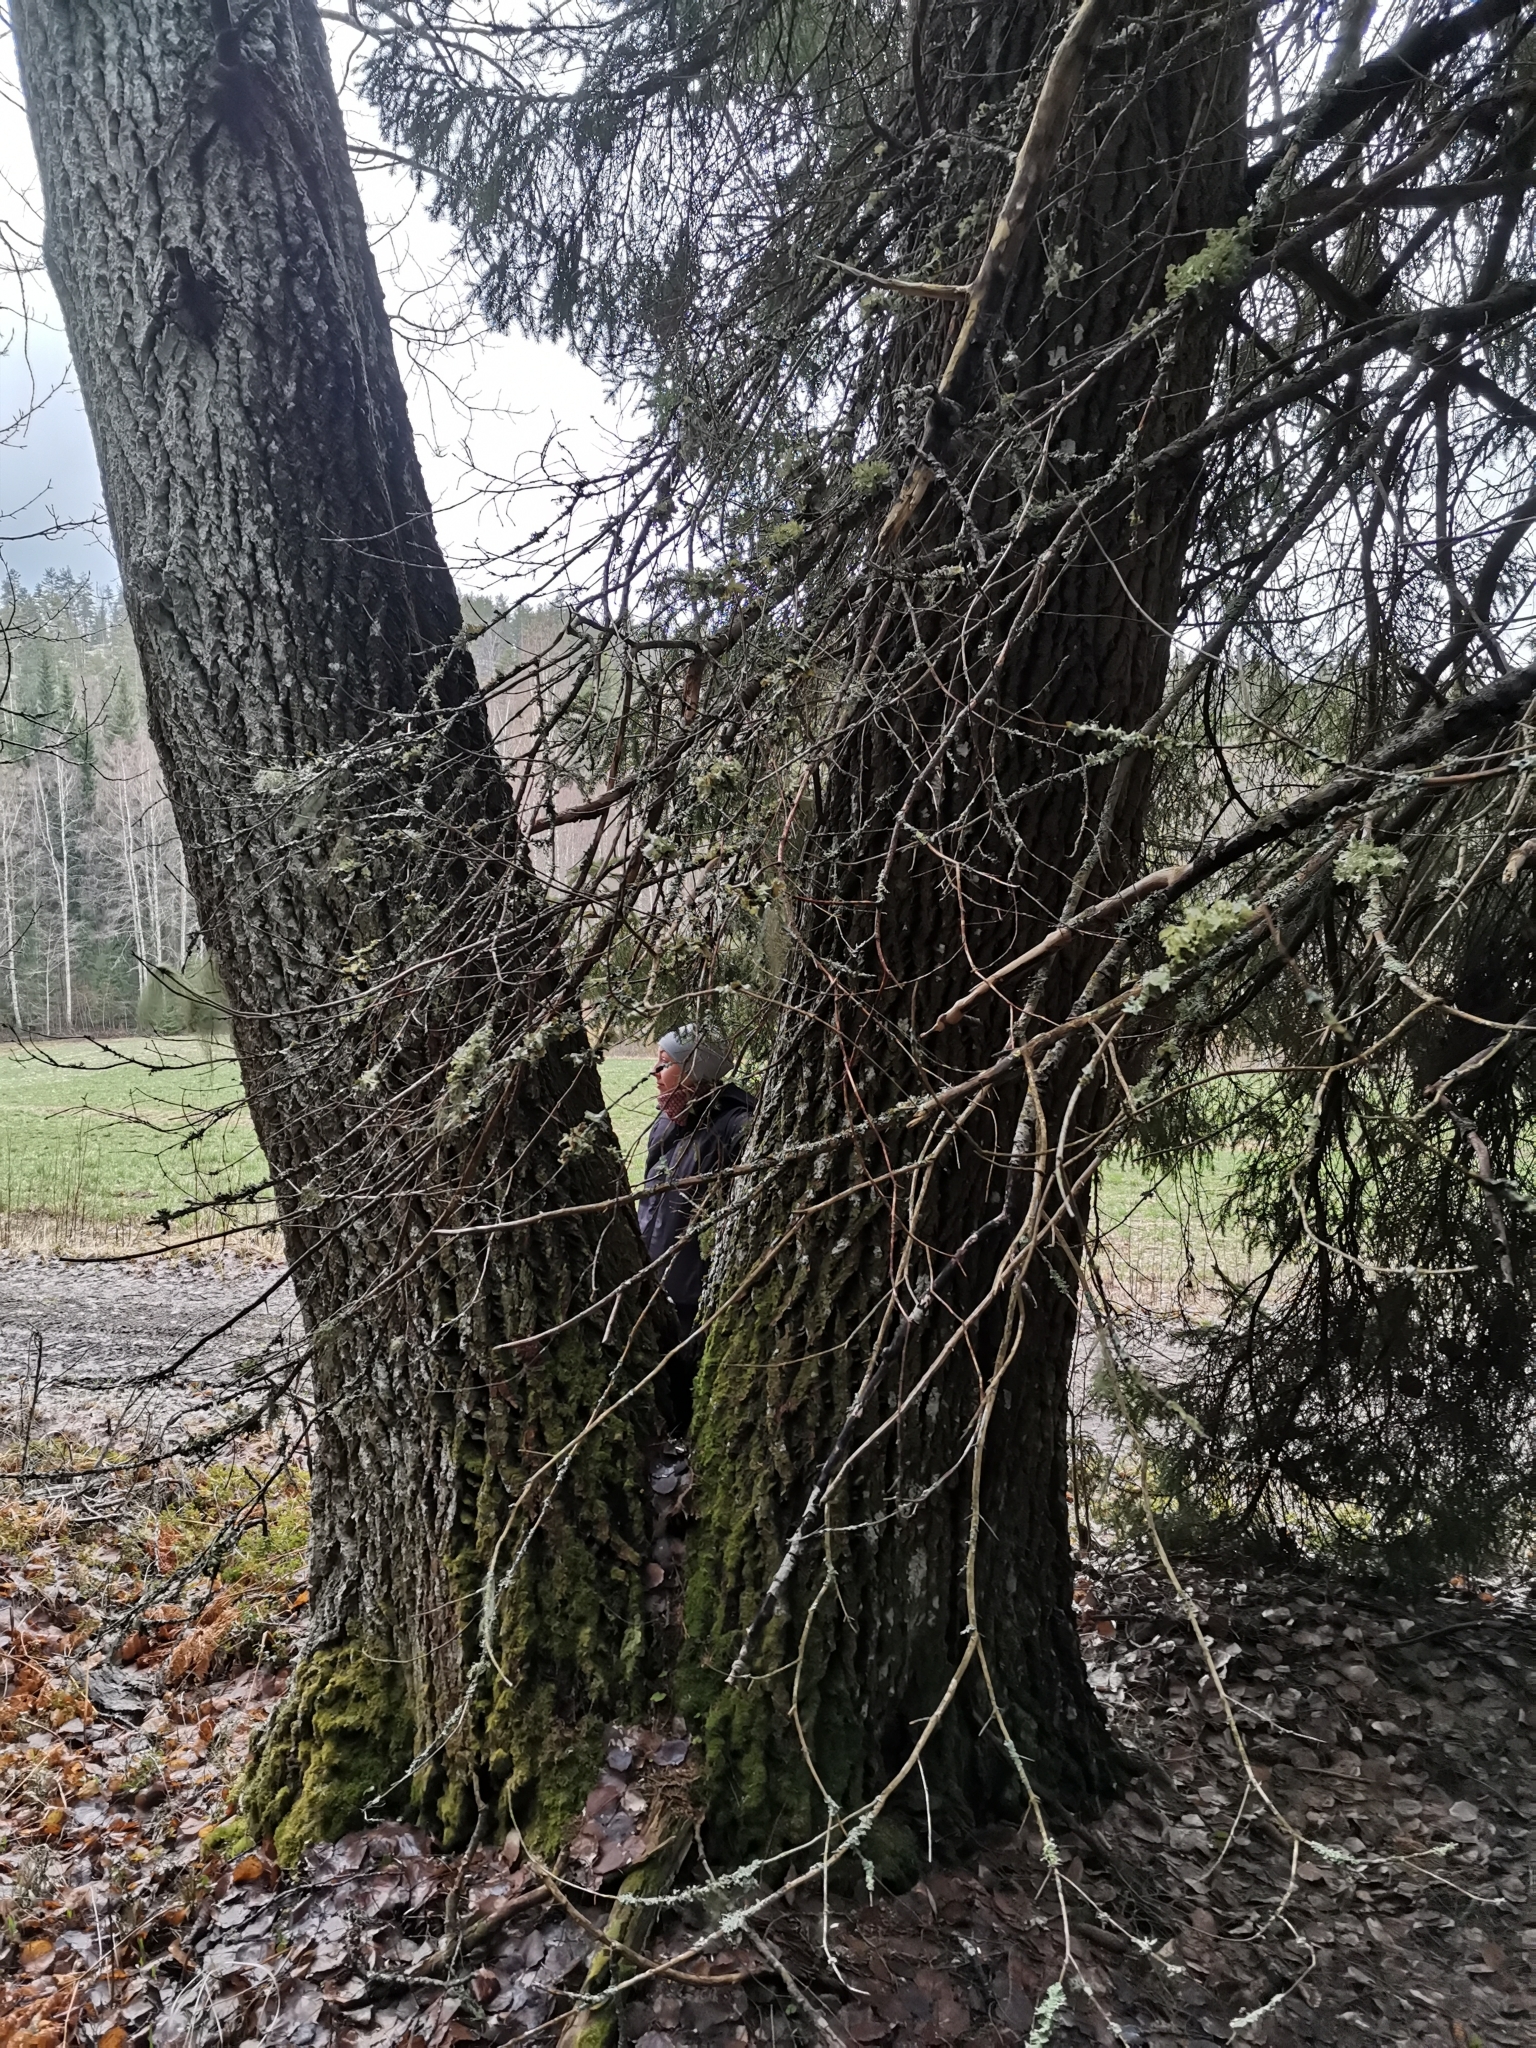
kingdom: Animalia
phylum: Chordata
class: Mammalia
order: Rodentia
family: Sciuridae
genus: Pteromys
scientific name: Pteromys volans
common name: Siberian flying squirrel
